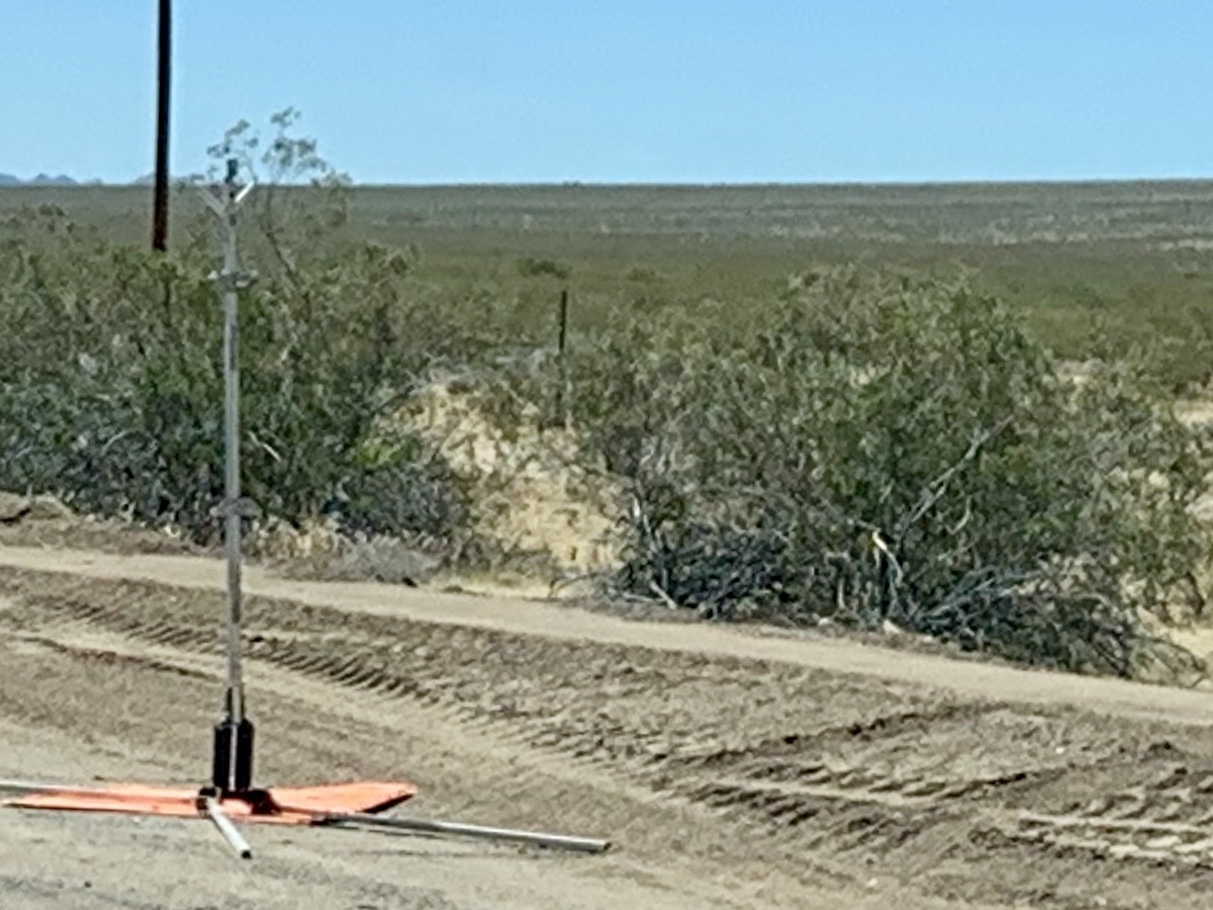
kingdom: Plantae
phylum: Tracheophyta
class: Magnoliopsida
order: Zygophyllales
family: Zygophyllaceae
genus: Larrea
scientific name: Larrea tridentata
